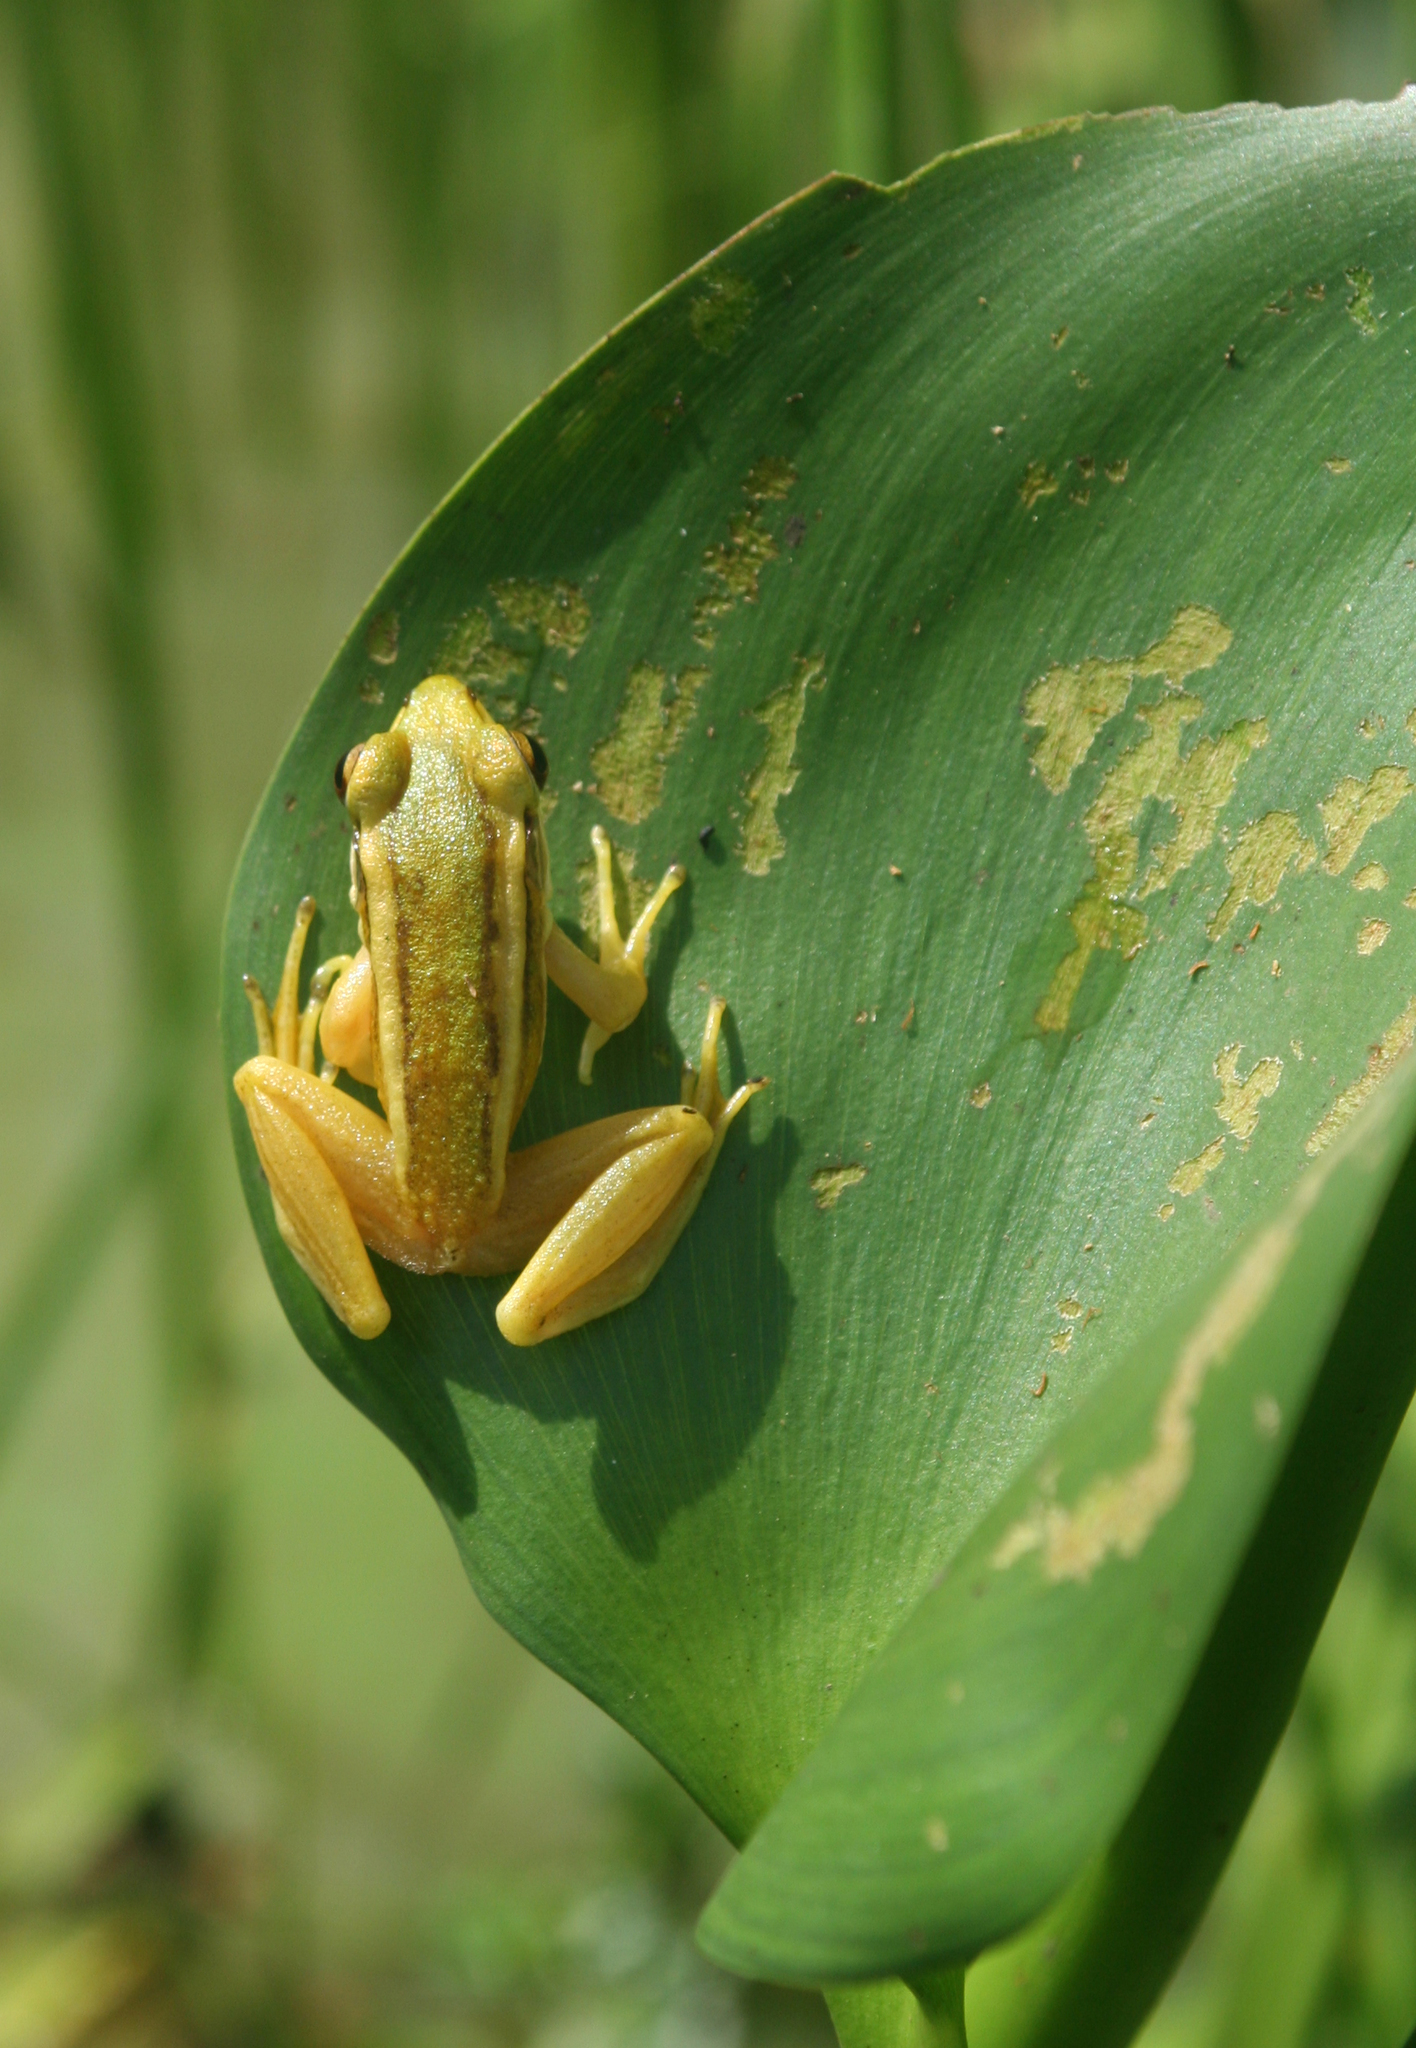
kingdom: Animalia
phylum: Chordata
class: Amphibia
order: Anura
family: Ranidae
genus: Hylarana
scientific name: Hylarana erythraea
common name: Common green frog/green paddy frog/leaf frog
